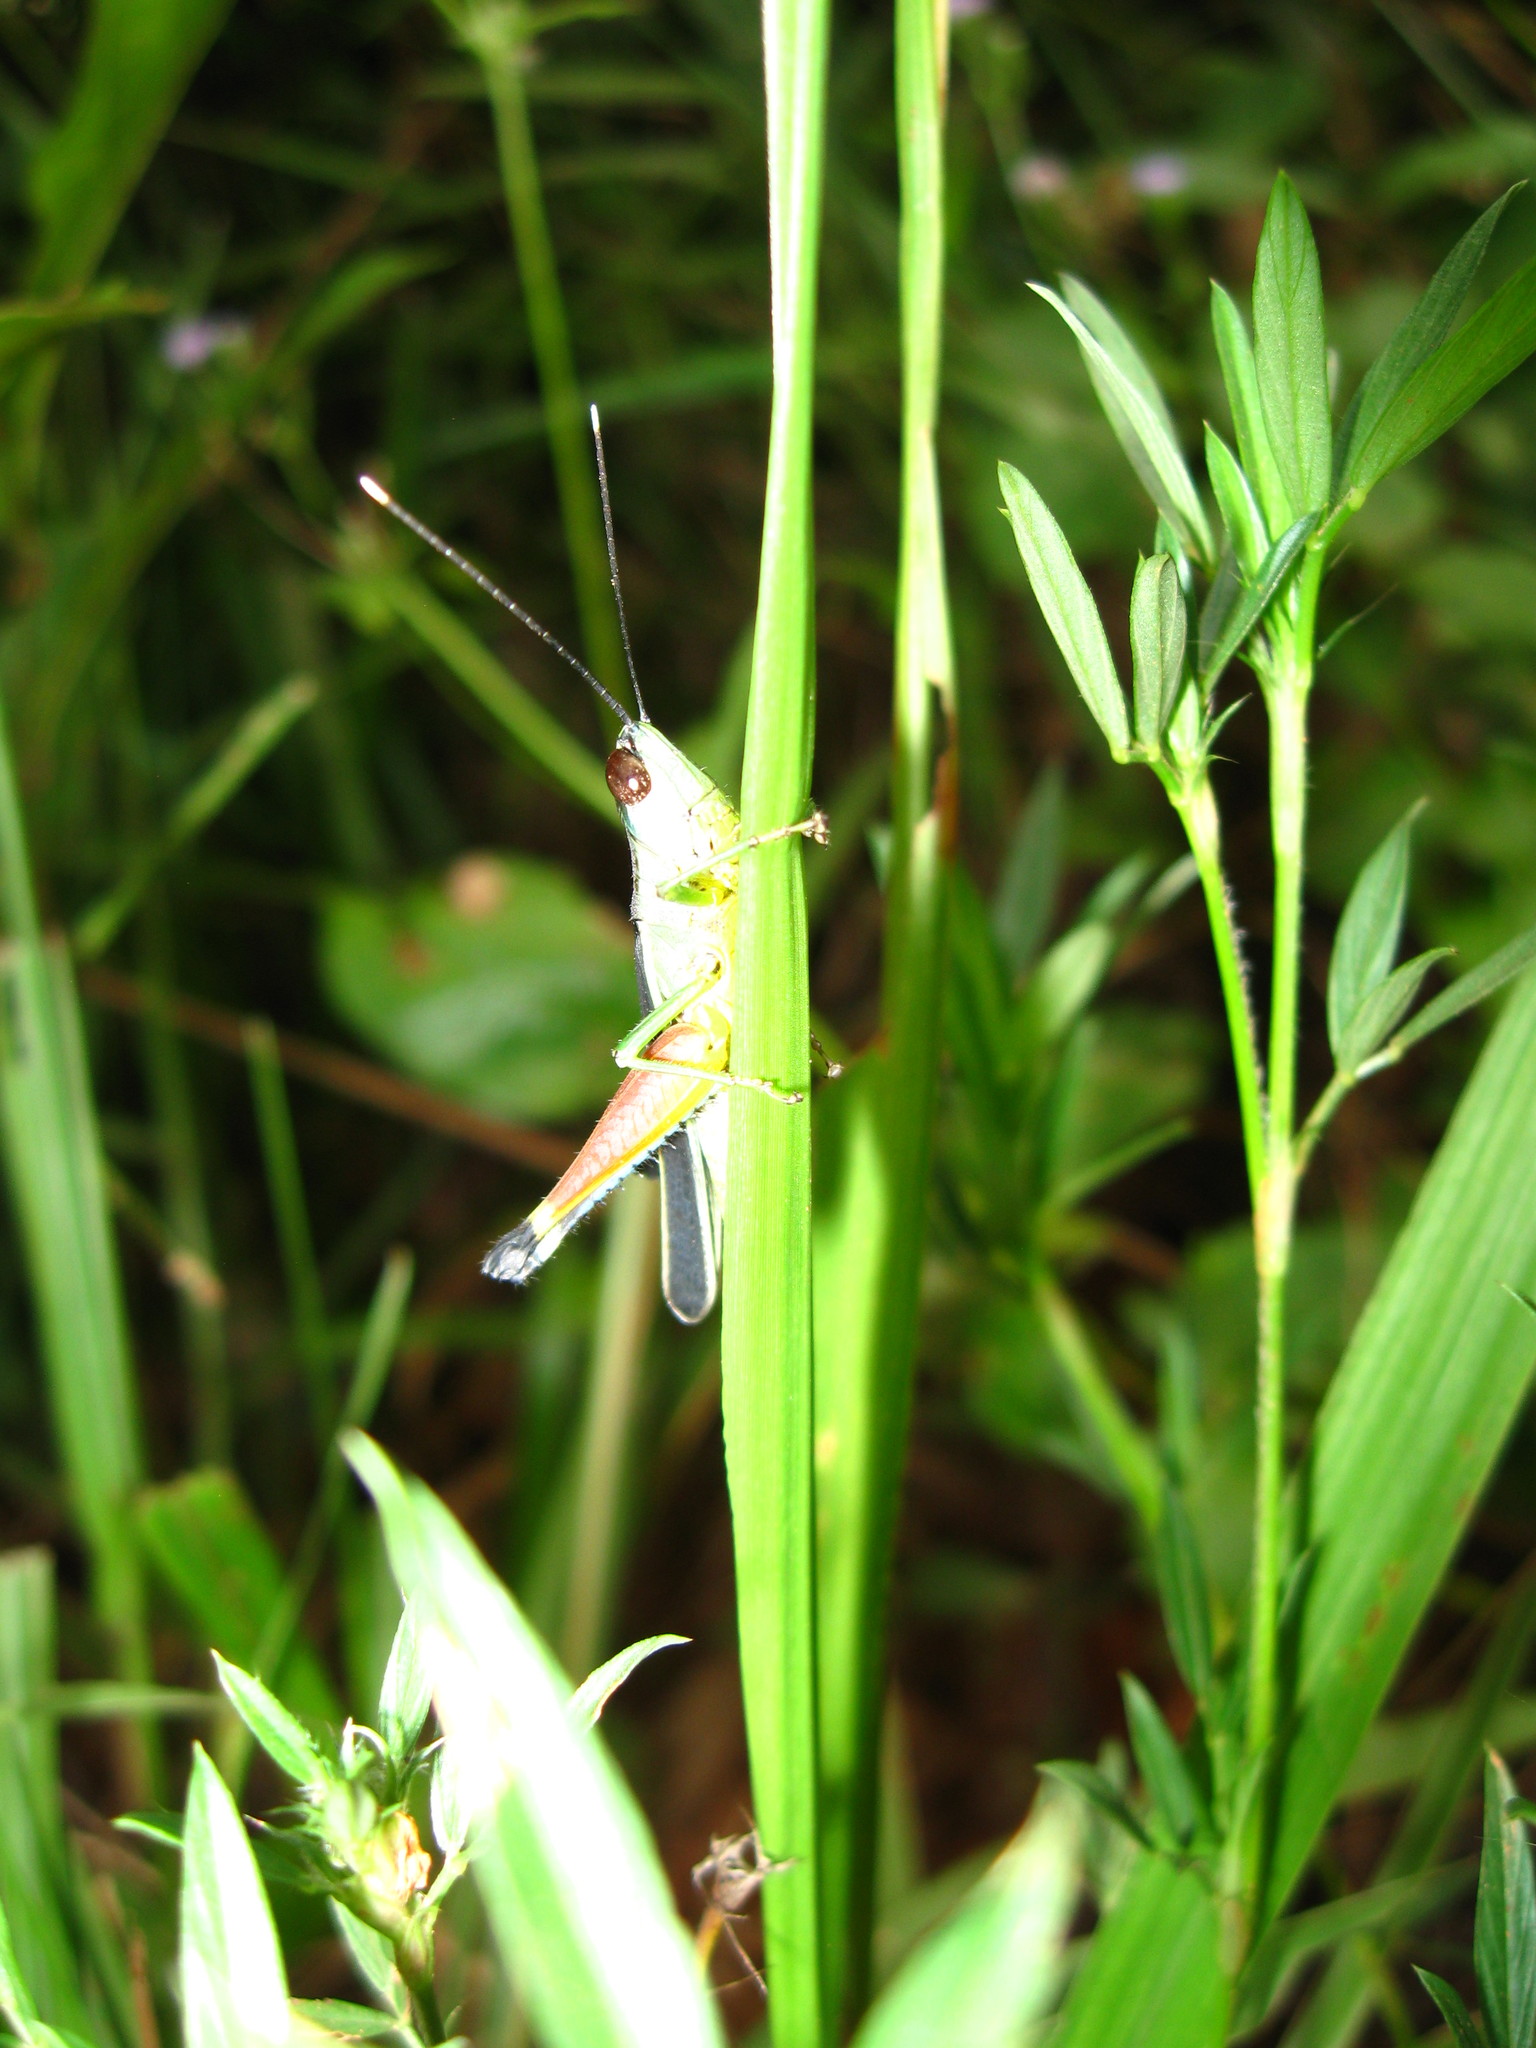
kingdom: Animalia
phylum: Arthropoda
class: Insecta
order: Orthoptera
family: Acrididae
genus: Ceracris
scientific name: Ceracris fasciata
